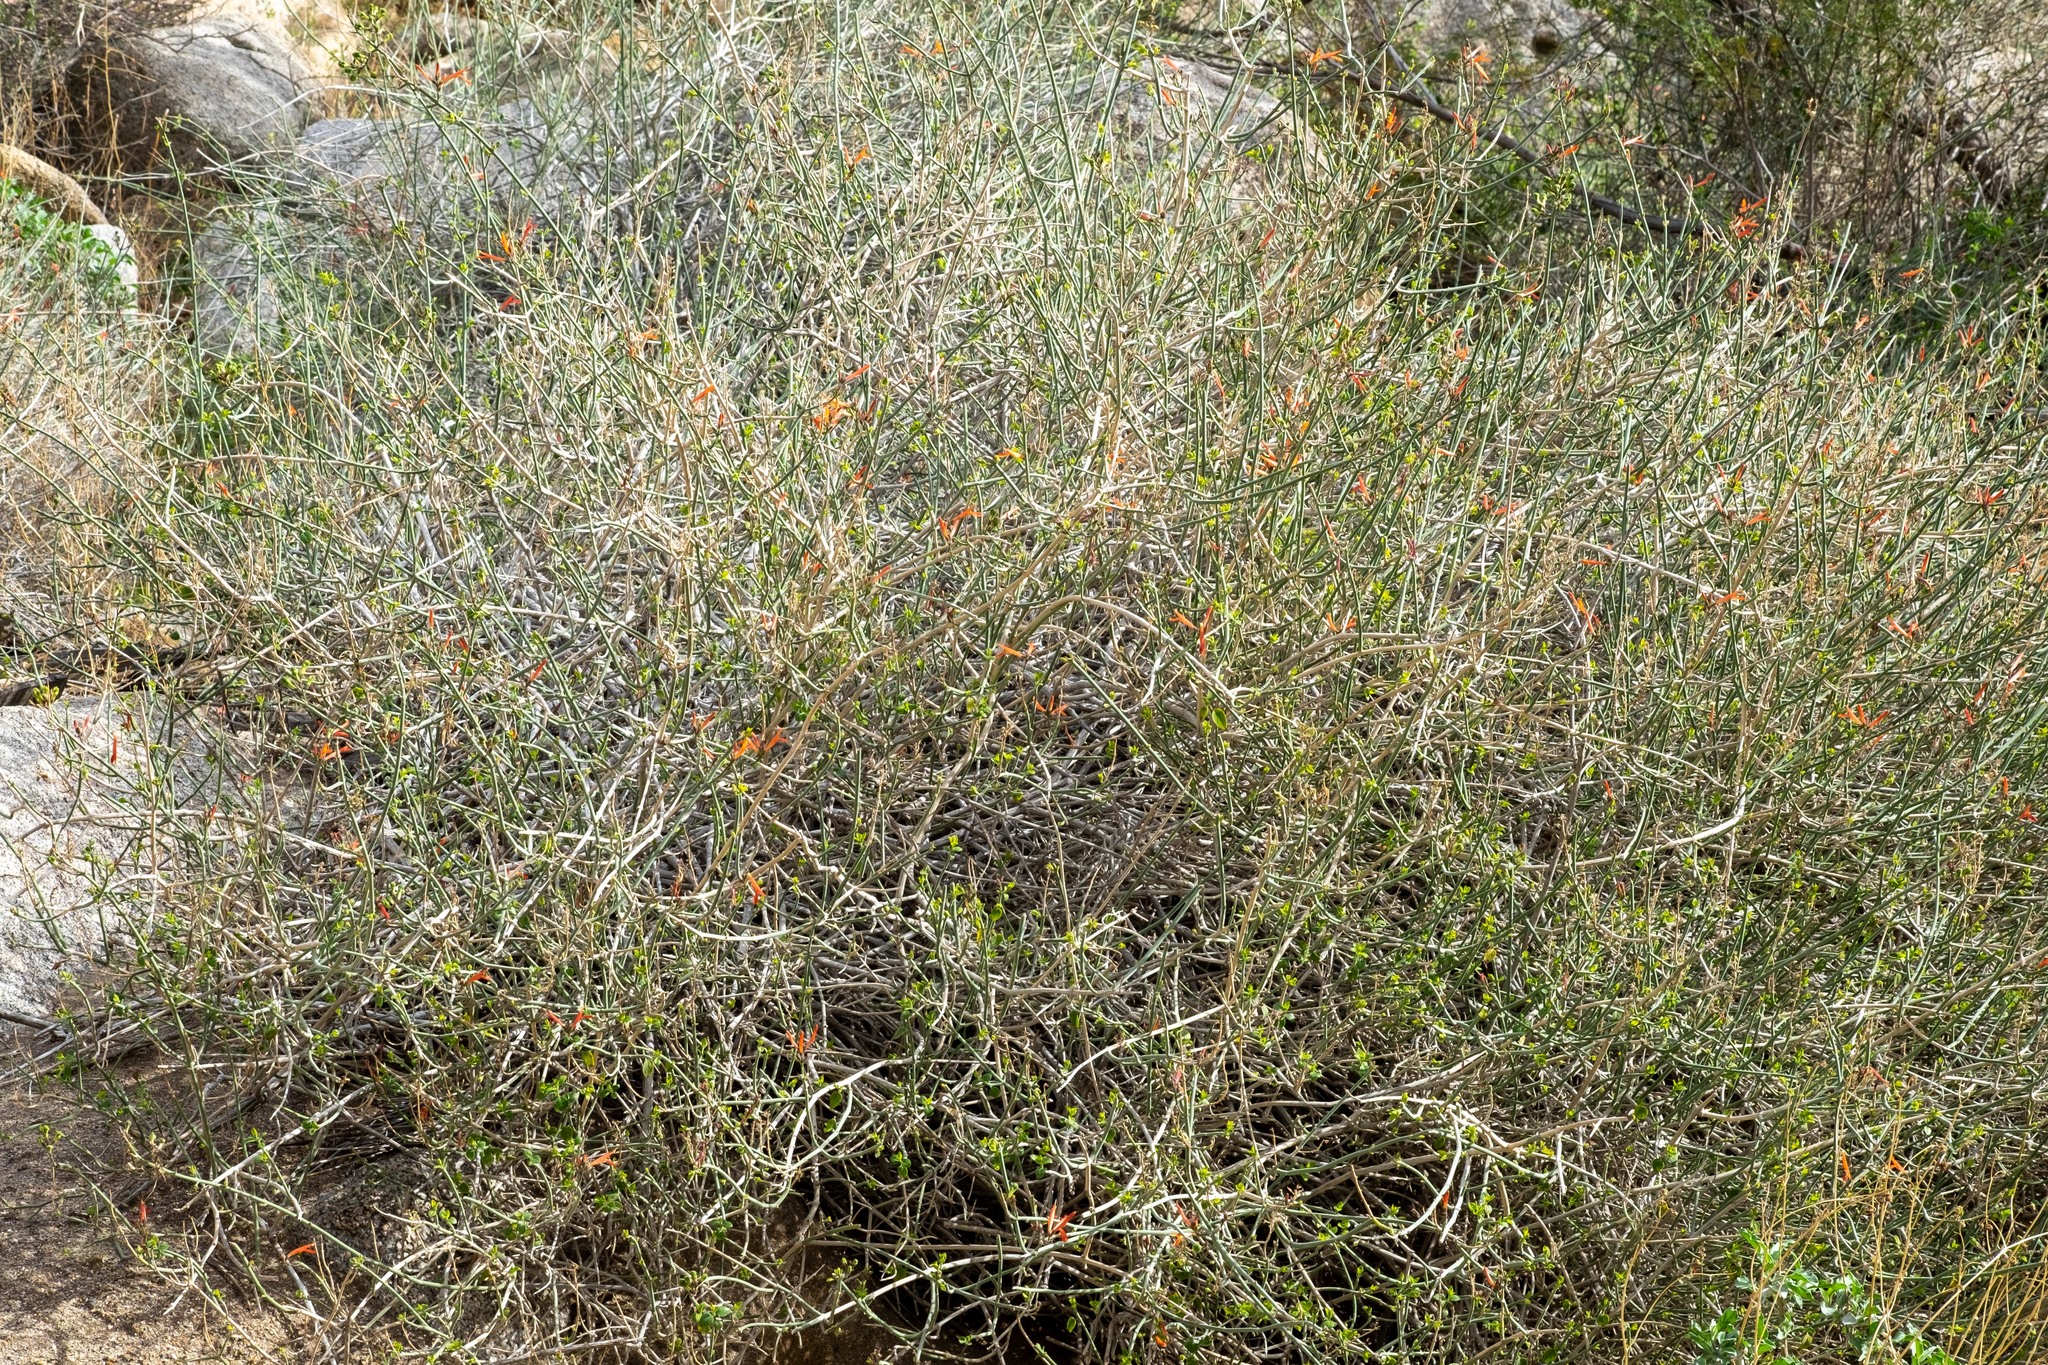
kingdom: Plantae
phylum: Tracheophyta
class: Magnoliopsida
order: Lamiales
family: Acanthaceae
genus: Justicia
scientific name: Justicia californica
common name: Chuparosa-honeysuckle
